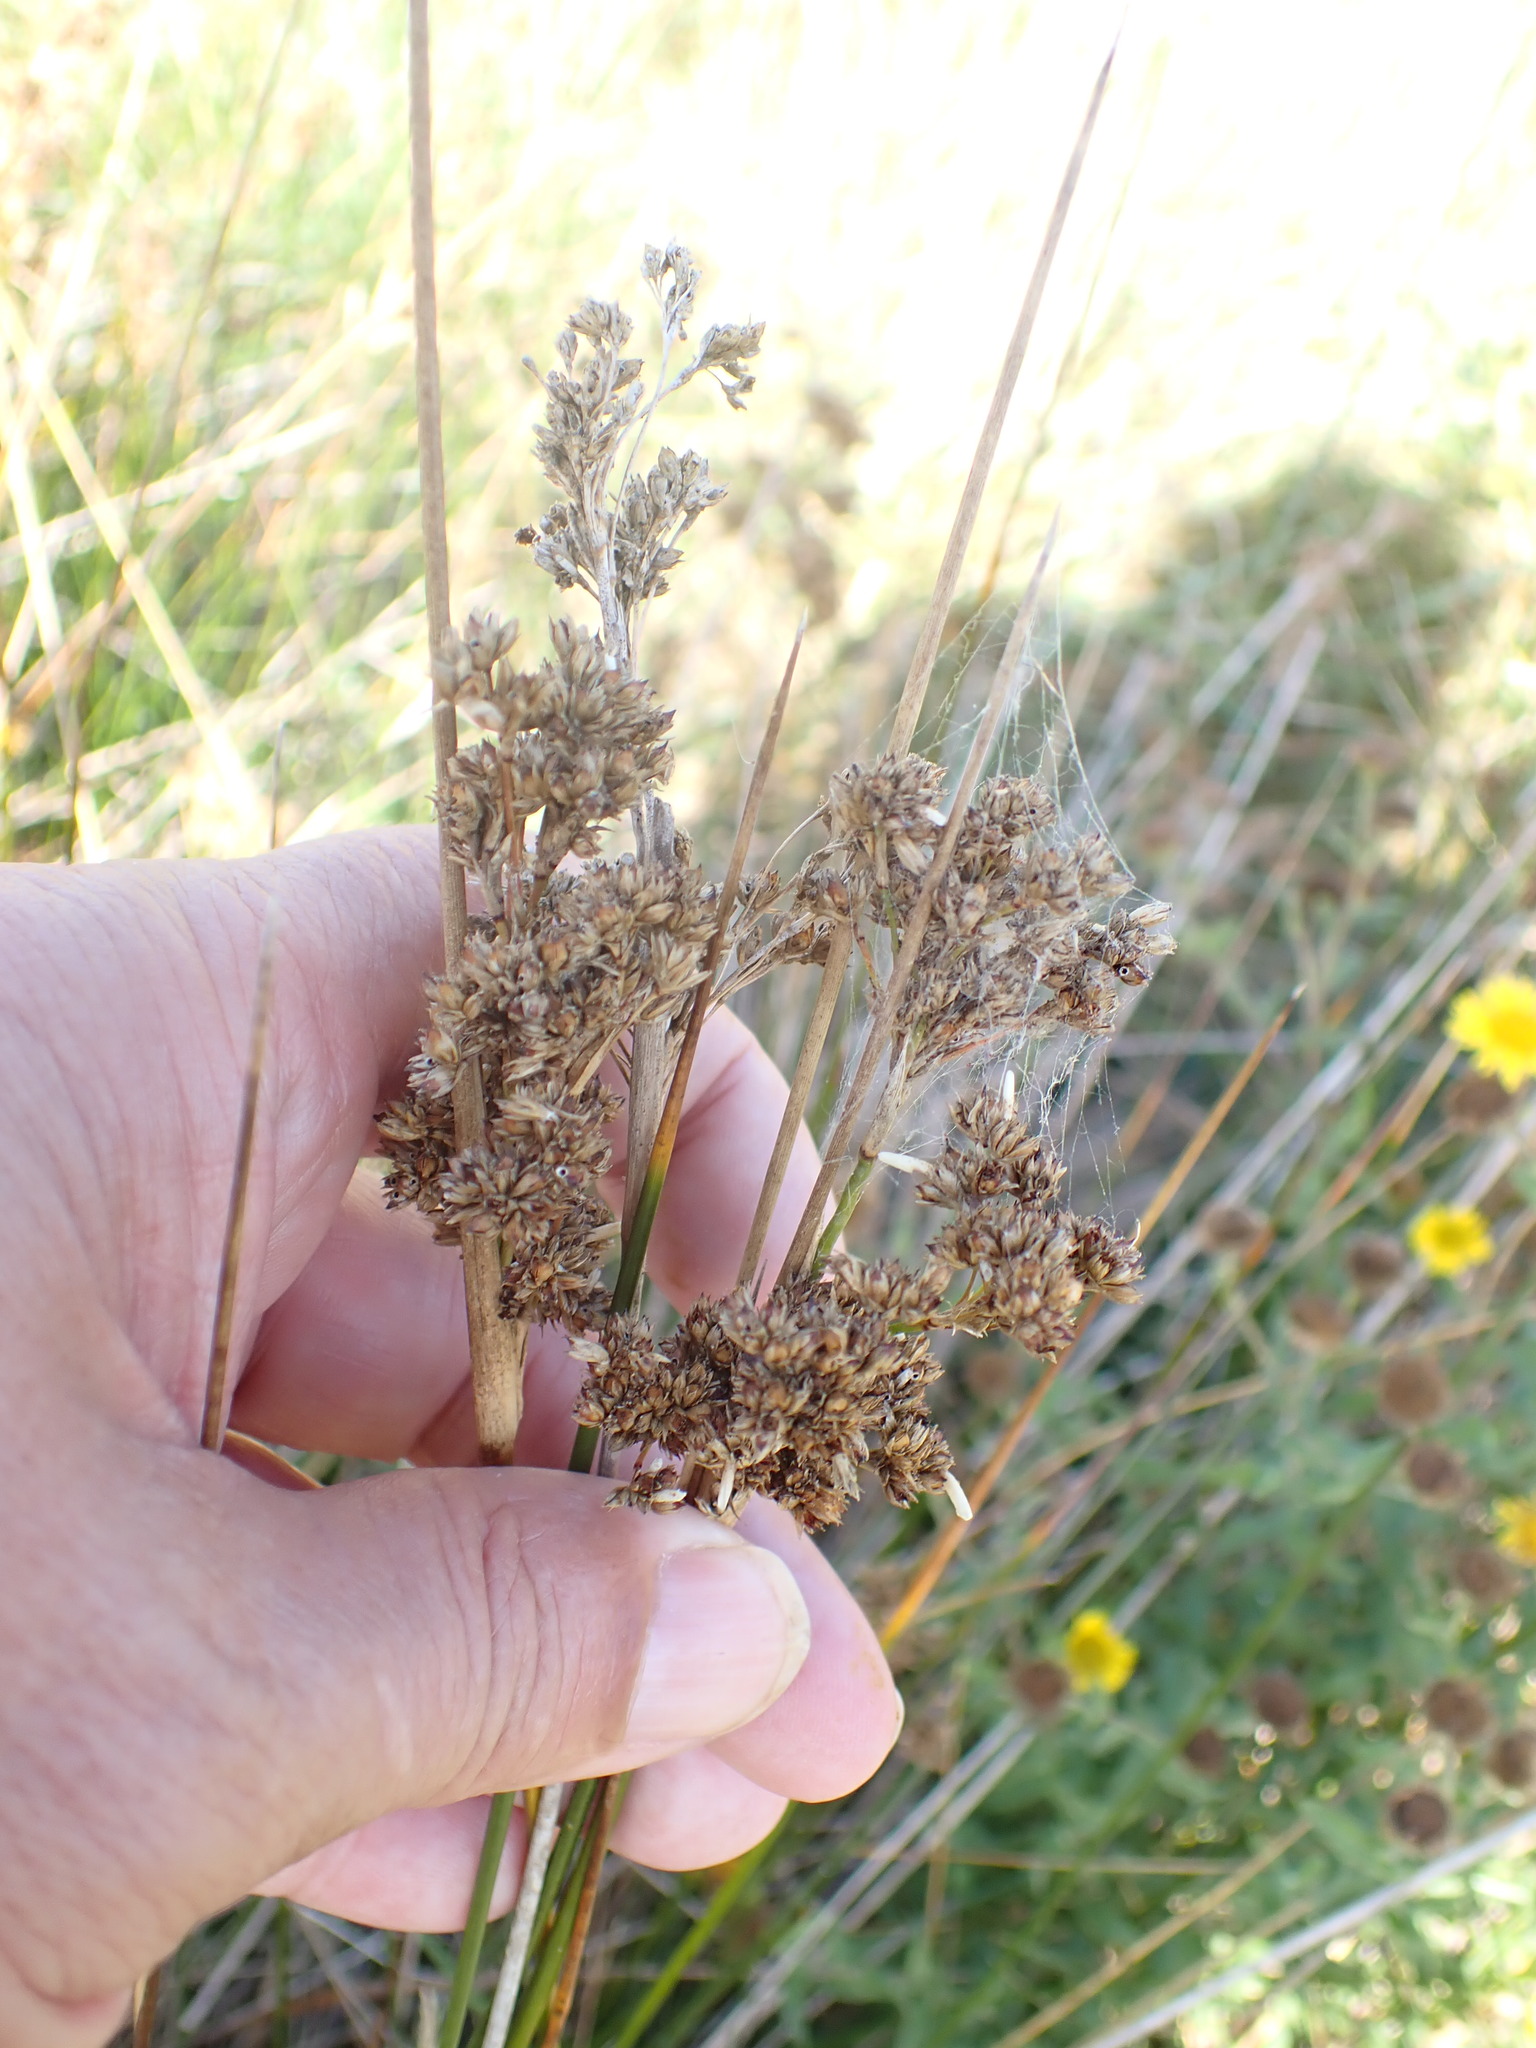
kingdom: Plantae
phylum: Tracheophyta
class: Liliopsida
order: Poales
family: Juncaceae
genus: Juncus
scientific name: Juncus maritimus
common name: Sea rush
